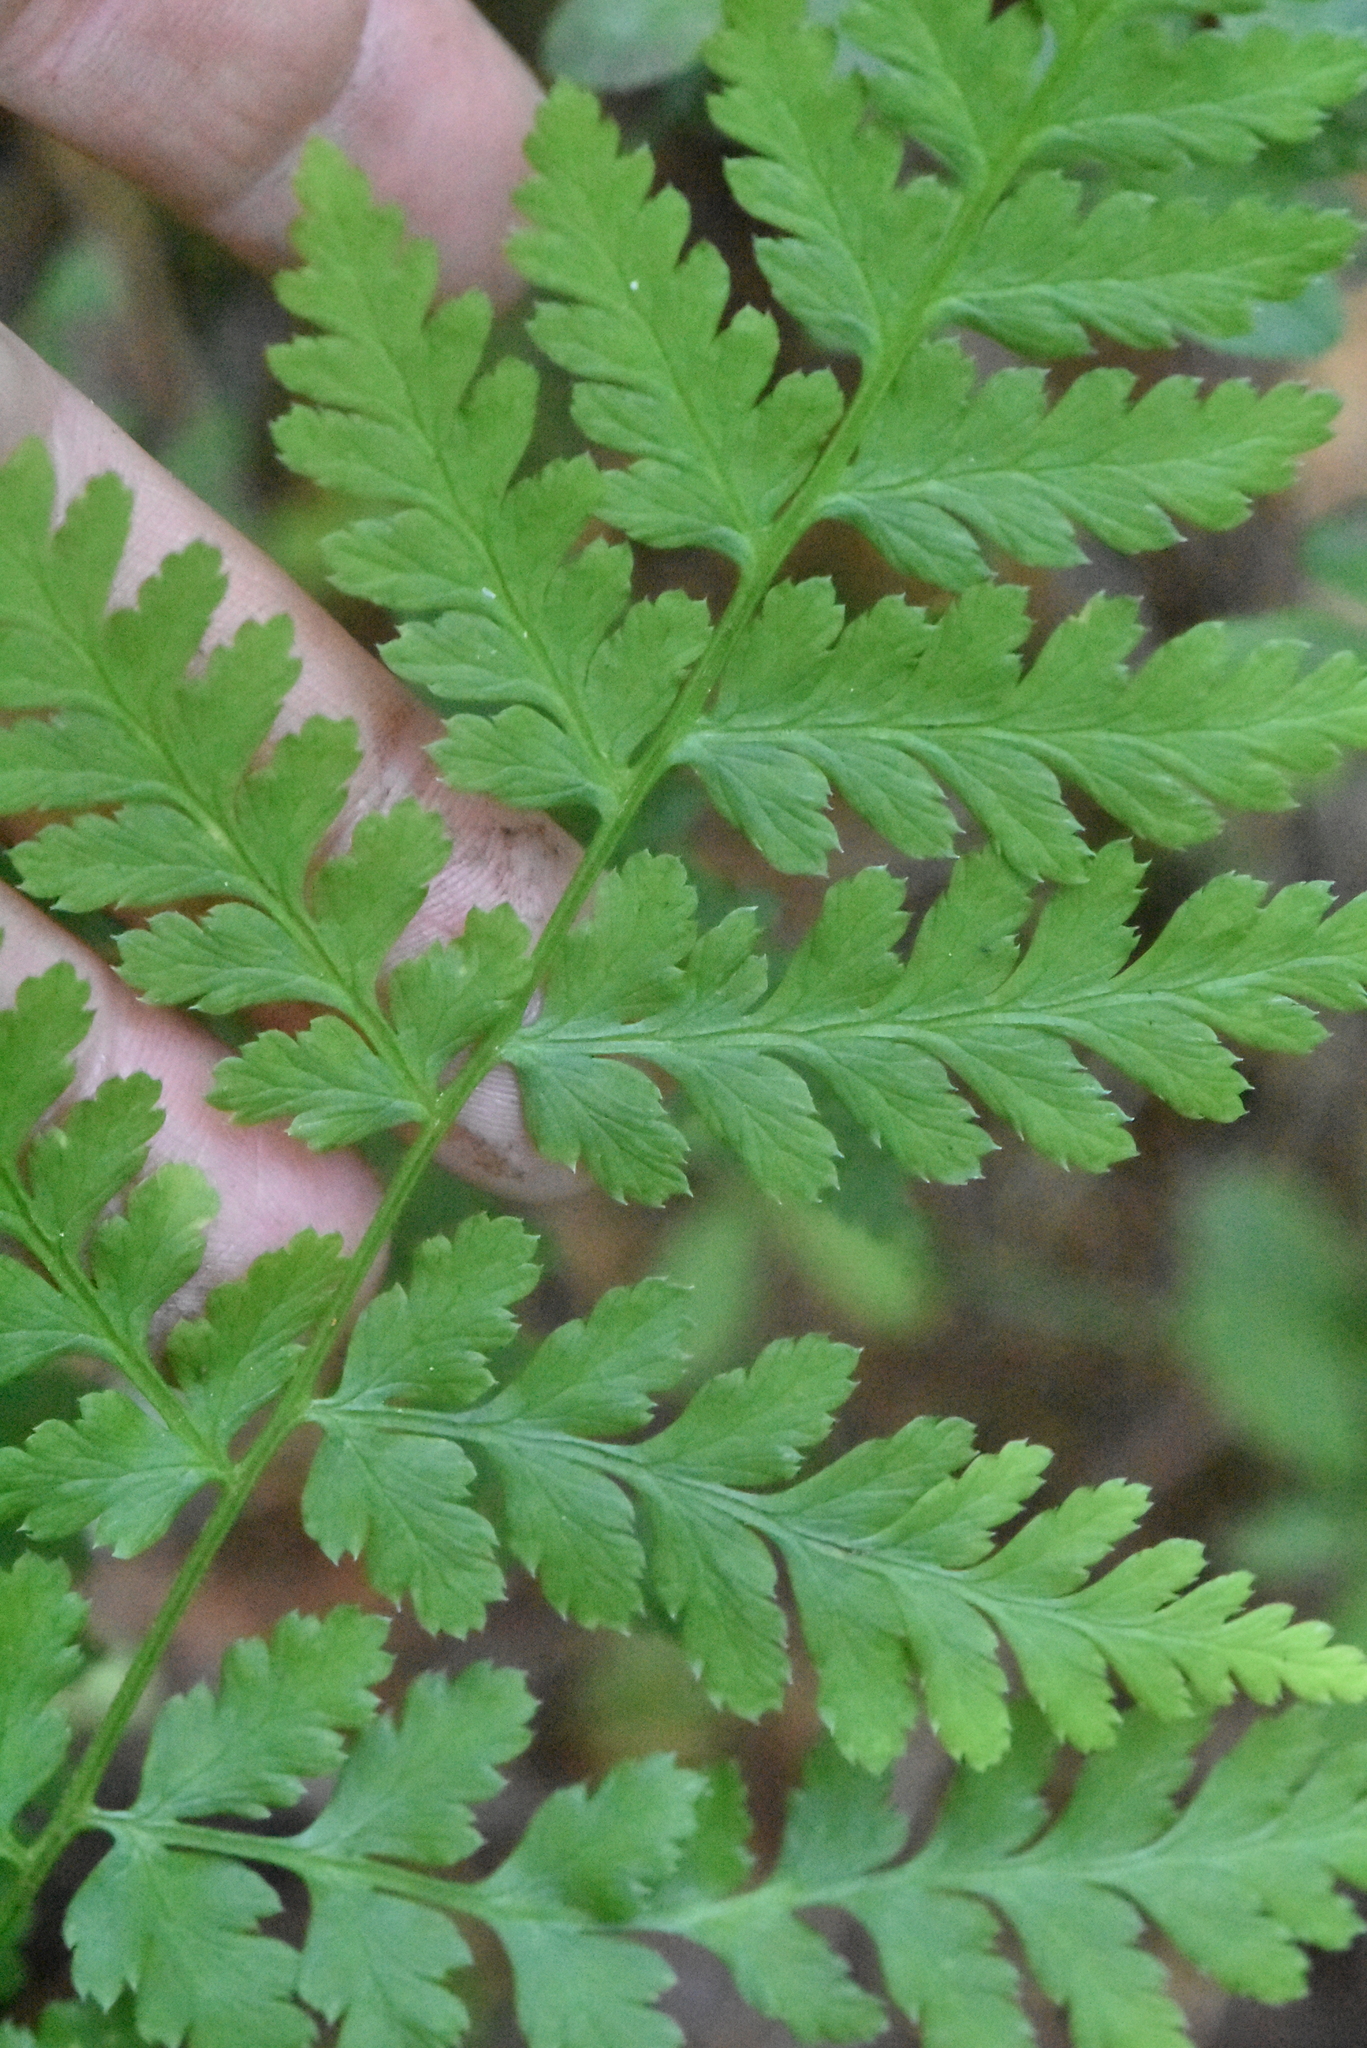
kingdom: Plantae
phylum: Tracheophyta
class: Polypodiopsida
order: Polypodiales
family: Dryopteridaceae
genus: Dryopteris
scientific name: Dryopteris expansa
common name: Northern buckler fern
